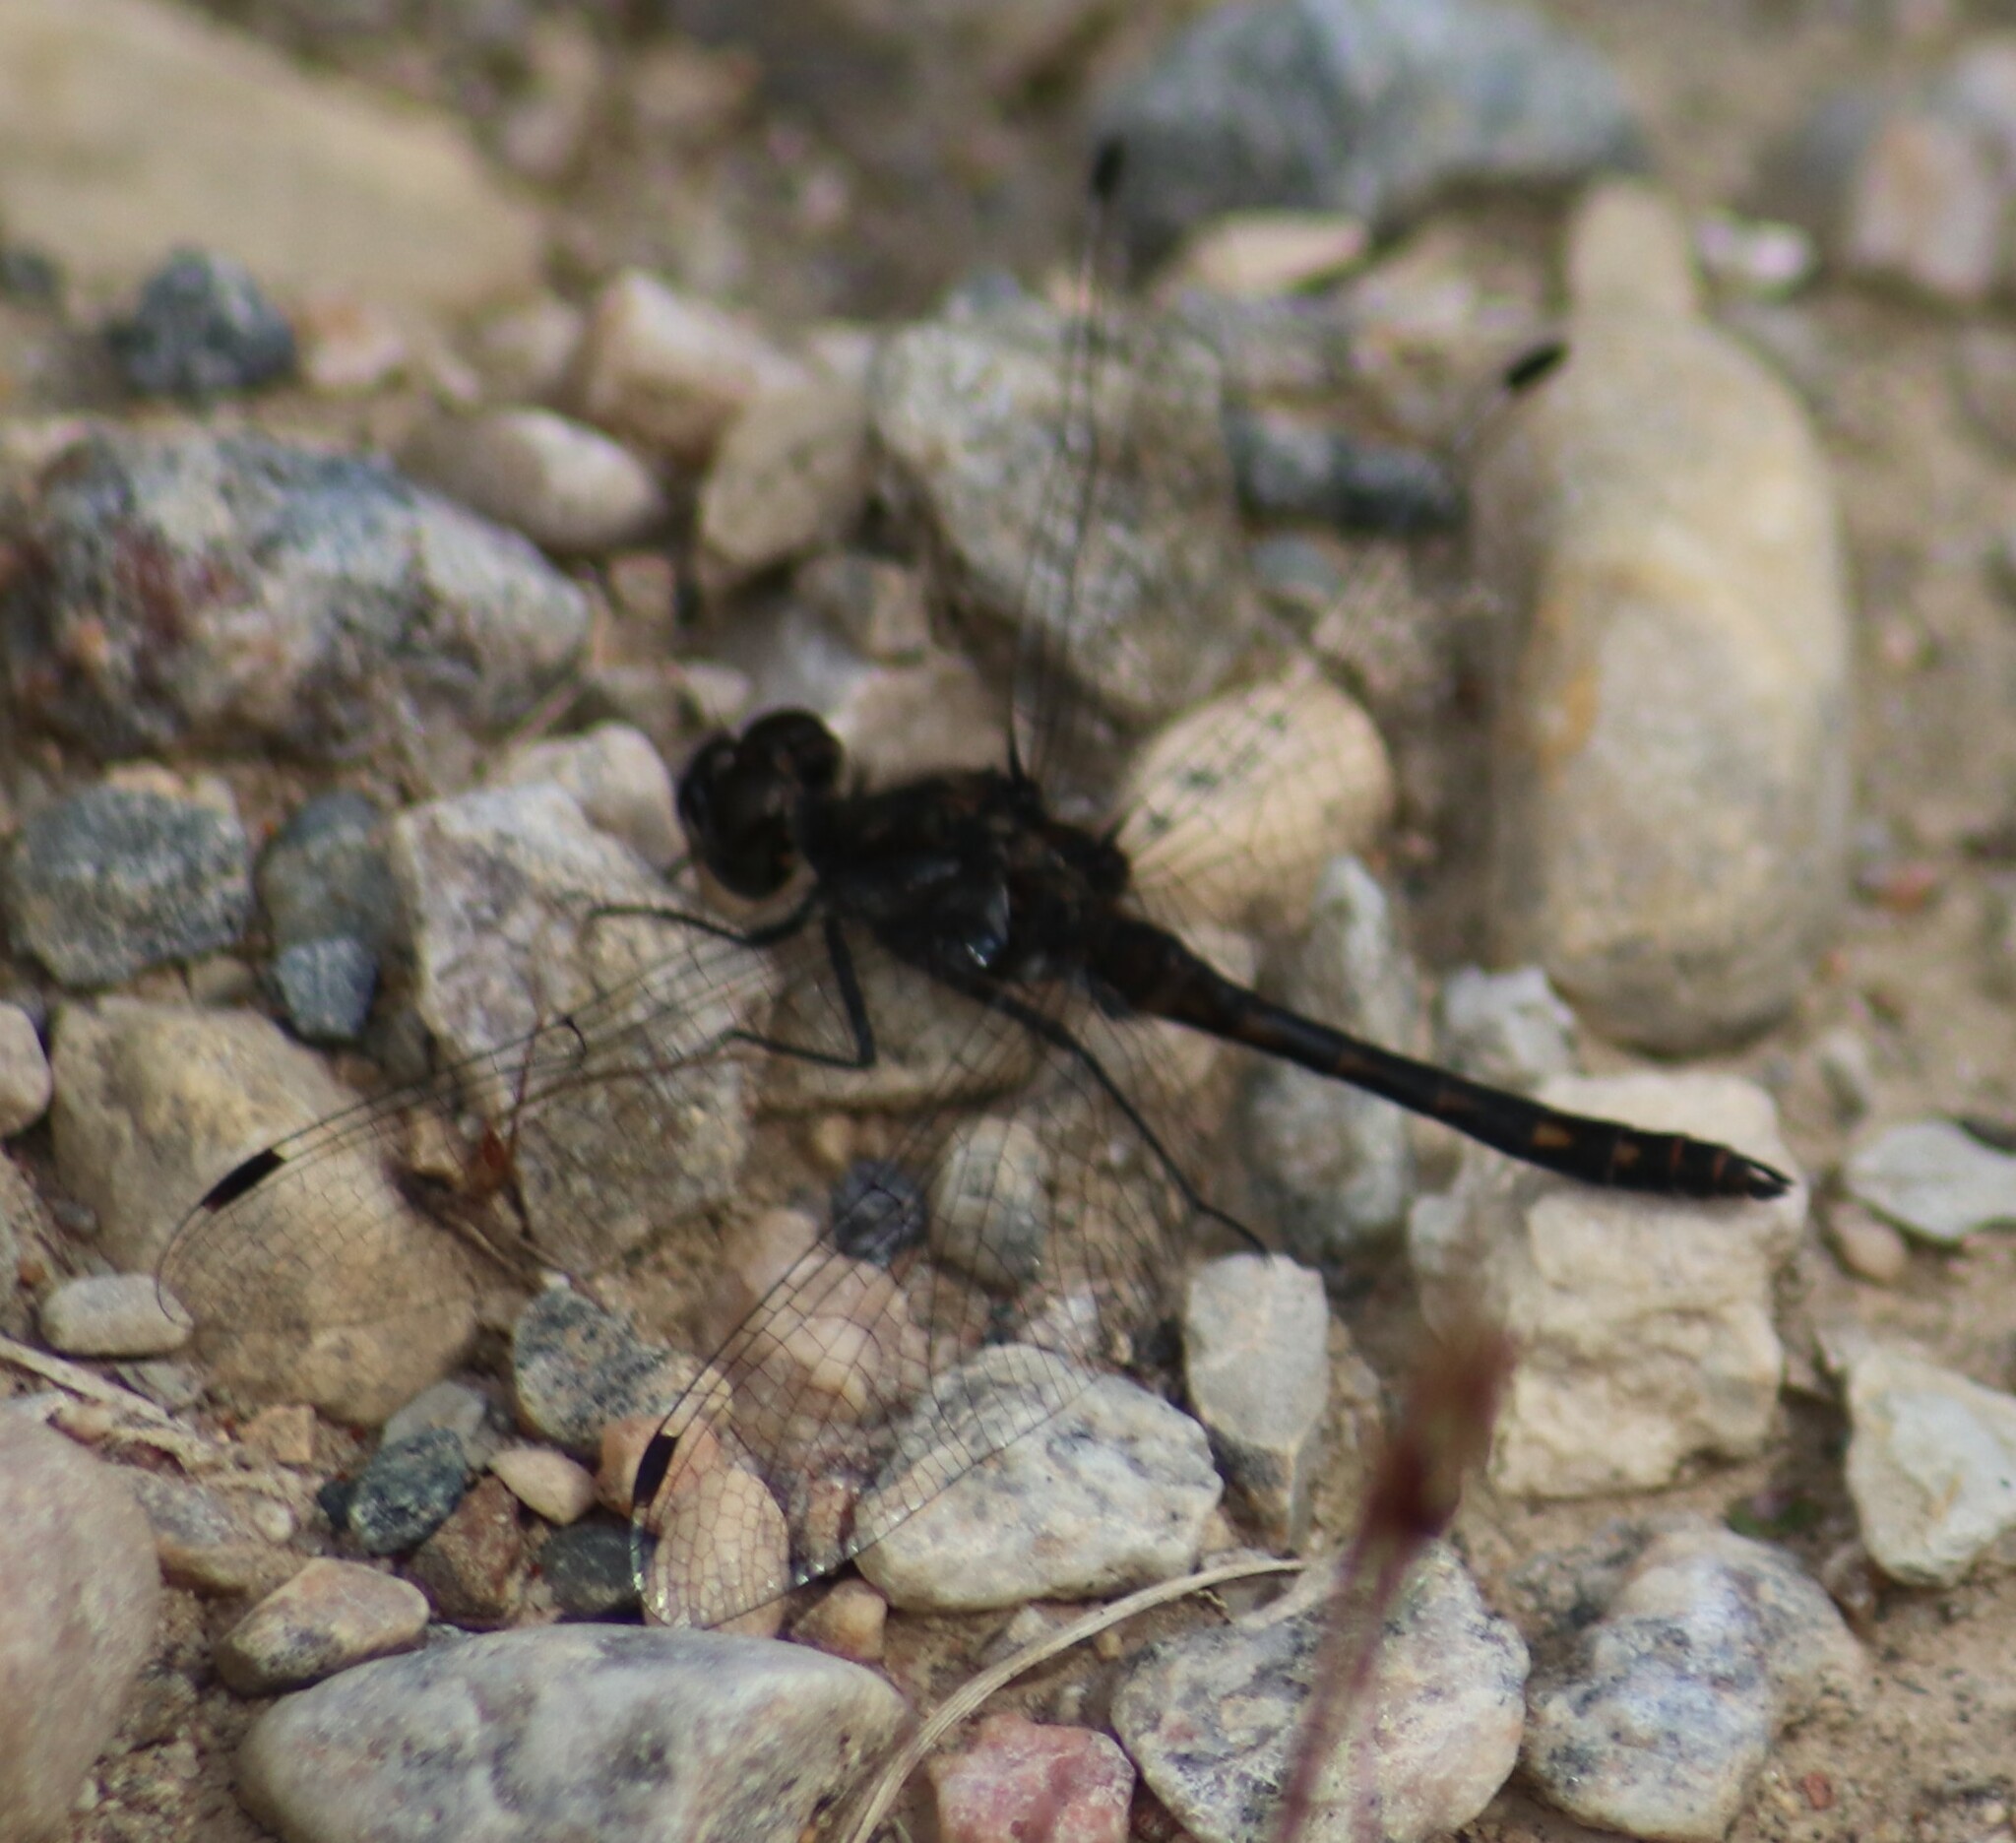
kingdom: Animalia
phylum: Arthropoda
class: Insecta
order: Odonata
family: Libellulidae
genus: Sympetrum
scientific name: Sympetrum danae
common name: Black darter
